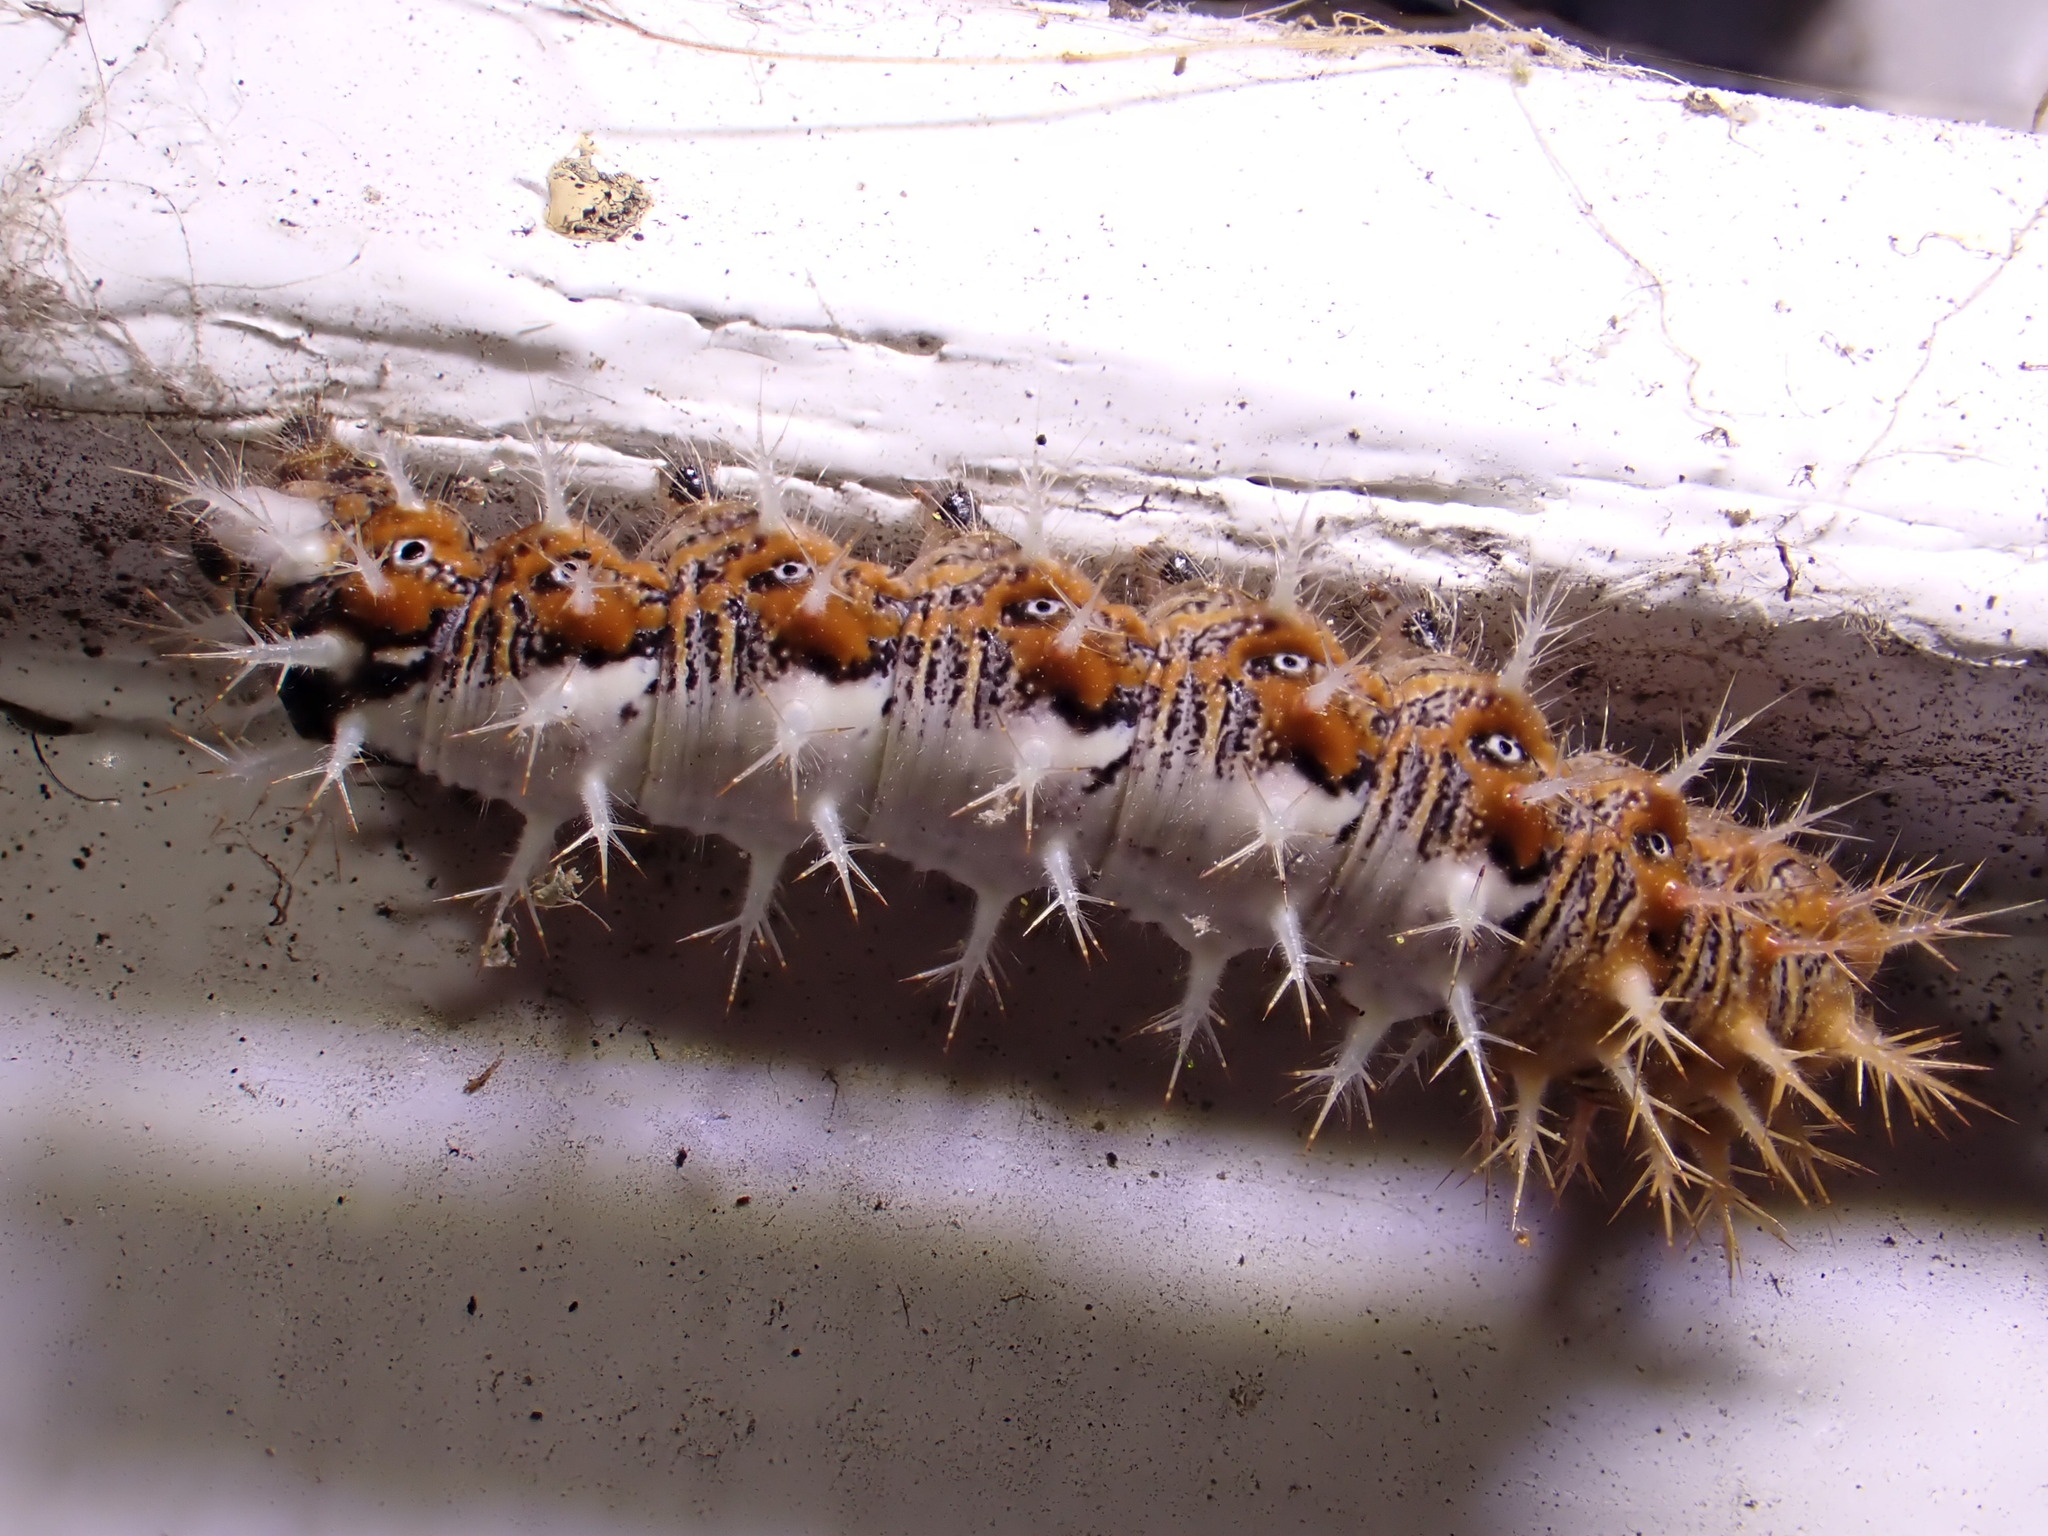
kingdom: Animalia
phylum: Arthropoda
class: Insecta
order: Lepidoptera
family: Nymphalidae
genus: Polygonia
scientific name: Polygonia c-album
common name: Comma
